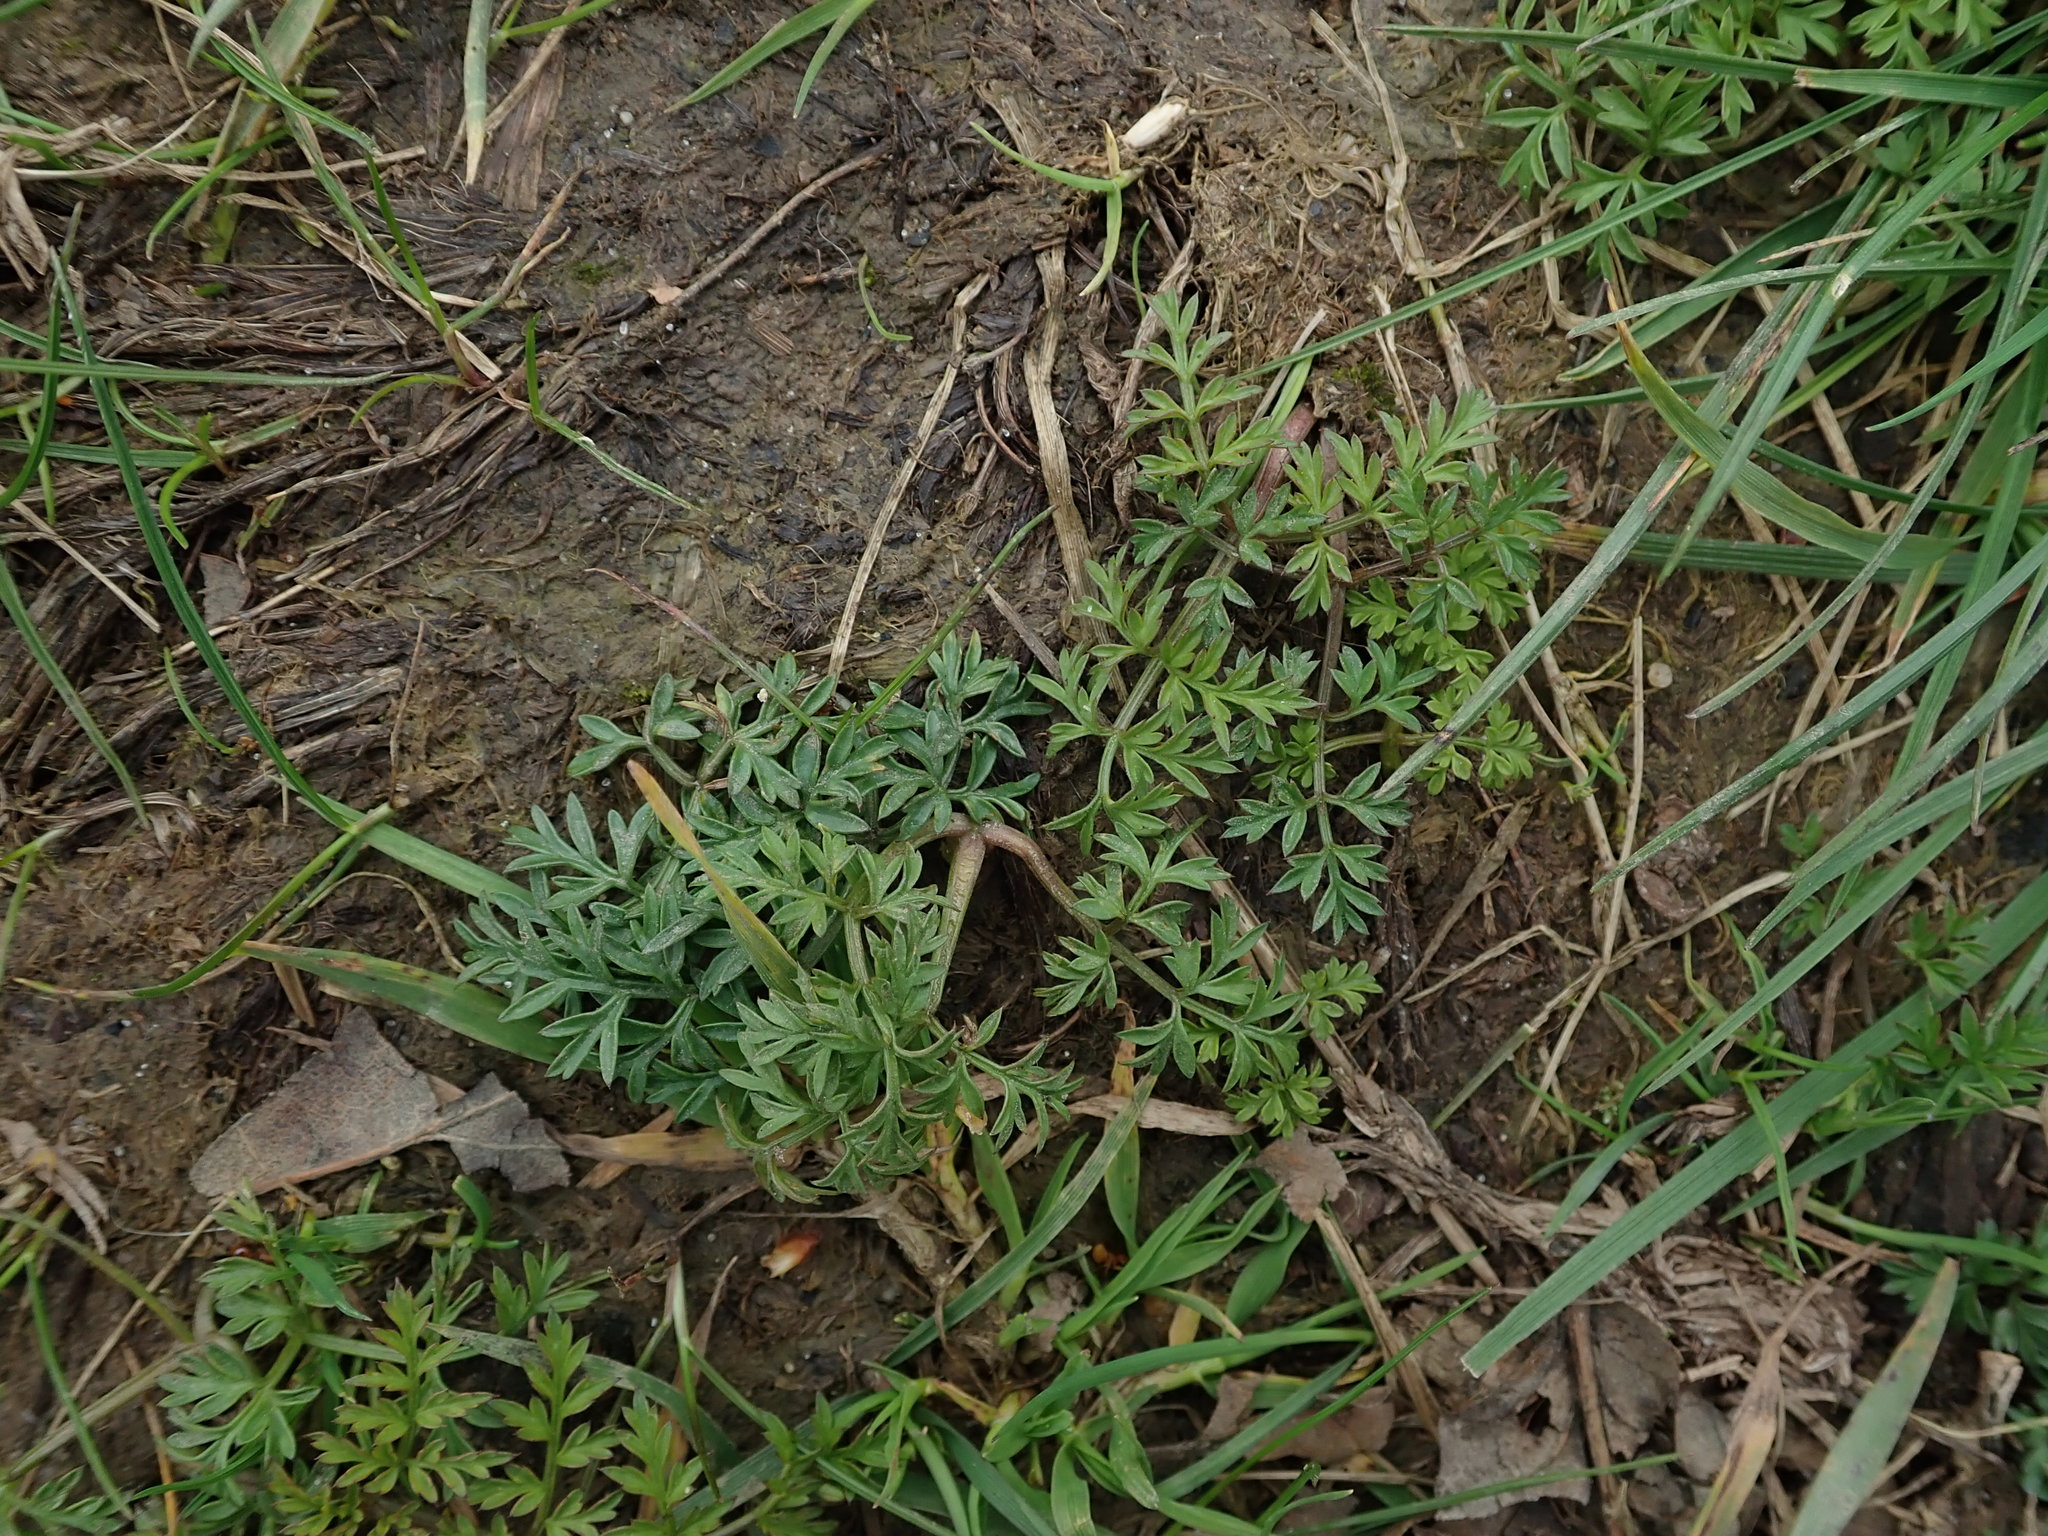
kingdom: Plantae
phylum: Tracheophyta
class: Magnoliopsida
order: Apiales
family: Apiaceae
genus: Conopodium
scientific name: Conopodium majus
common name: Pignut
